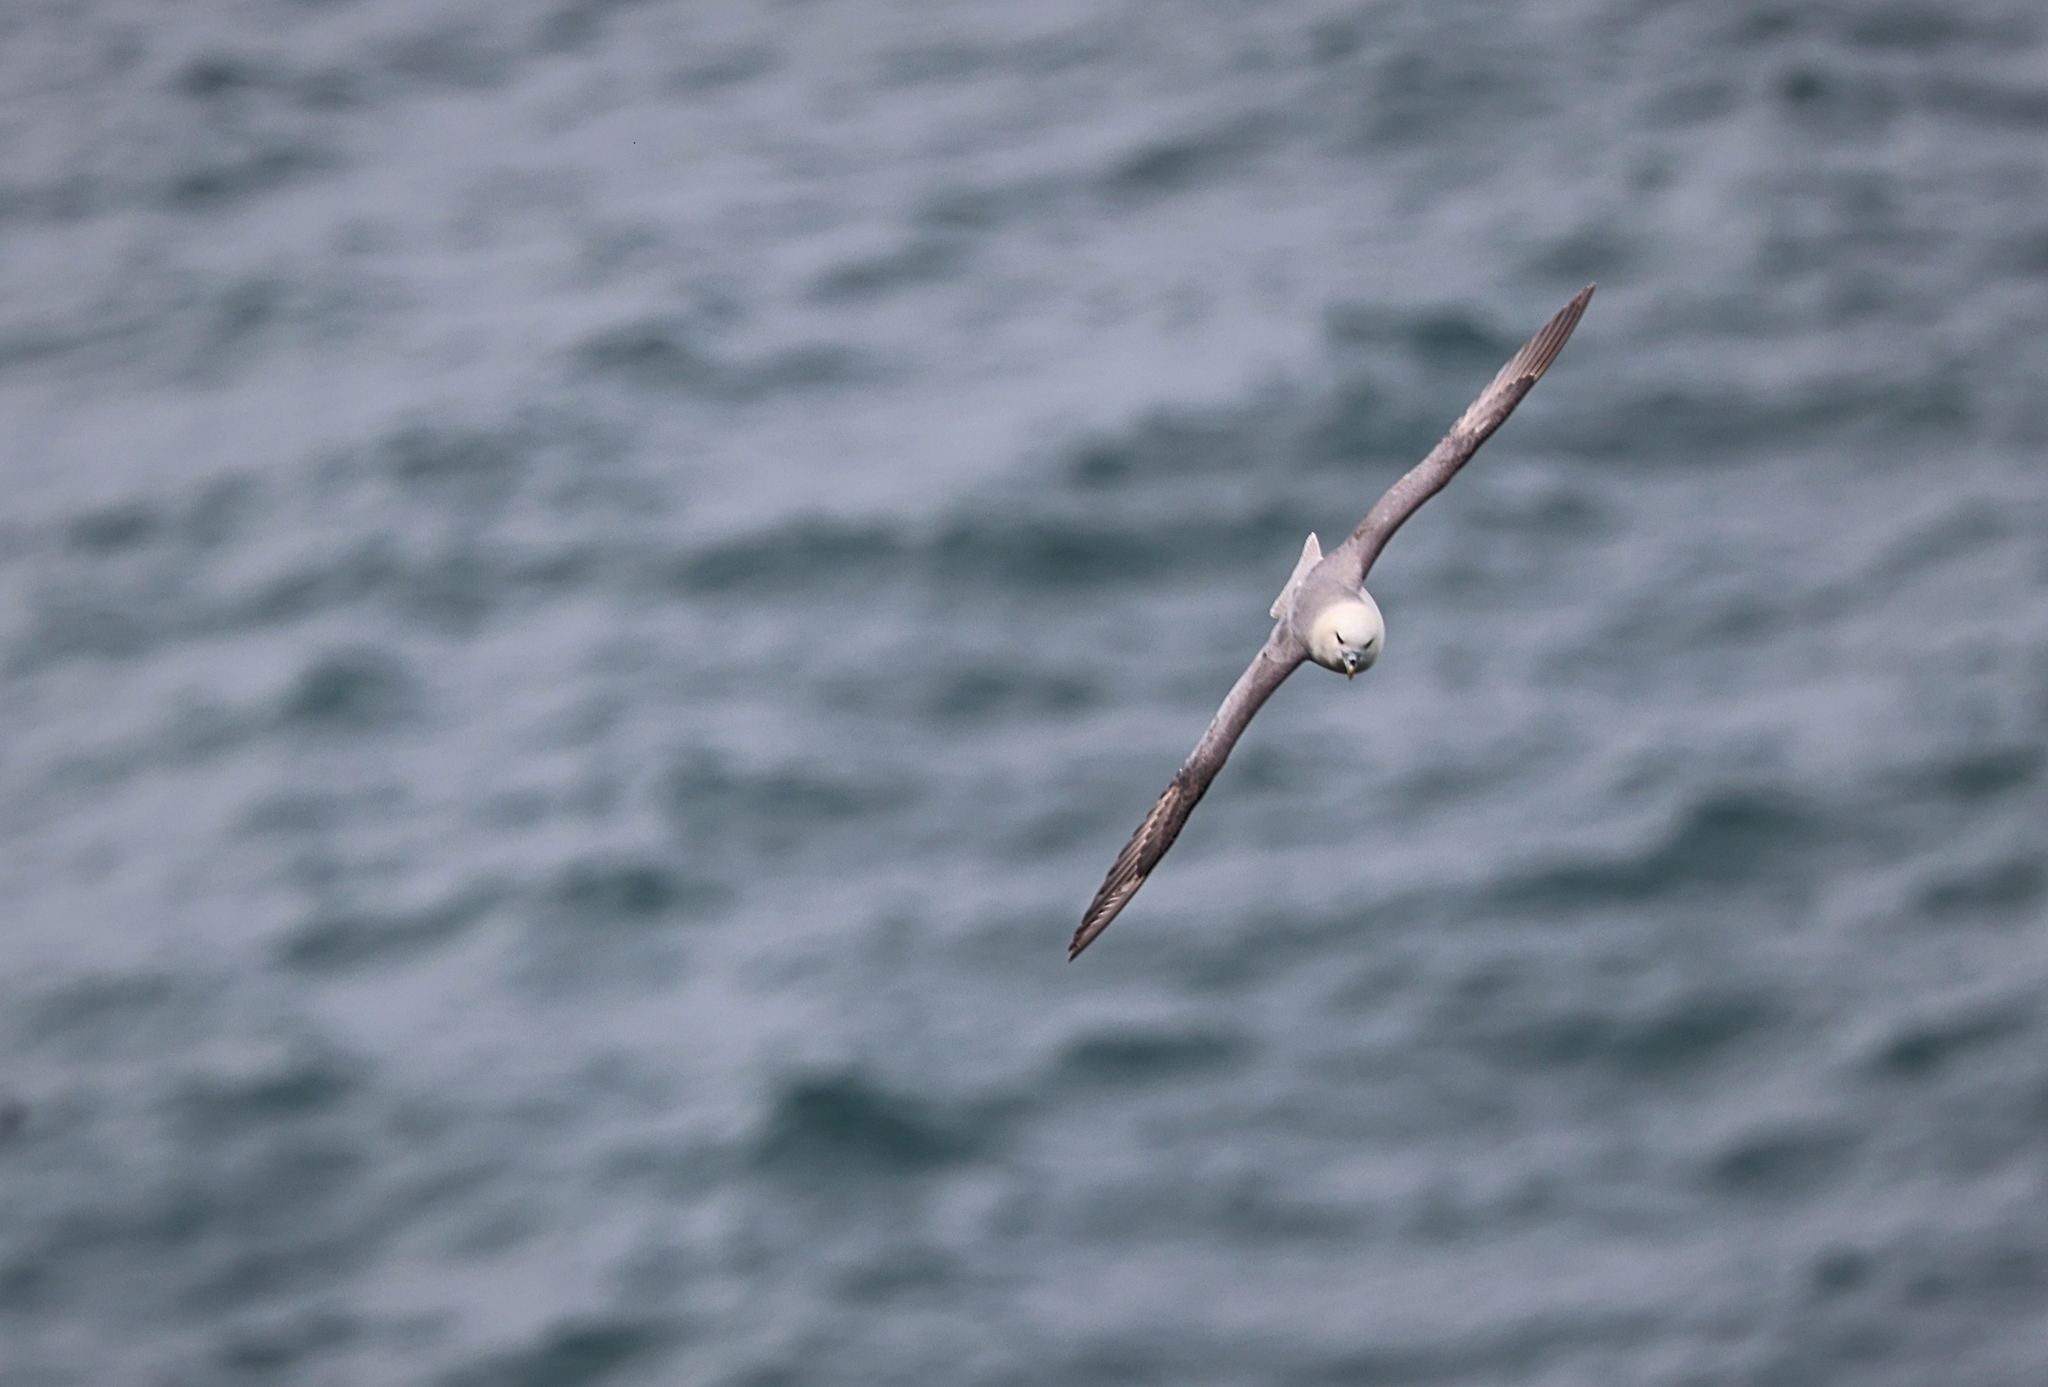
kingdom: Animalia
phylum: Chordata
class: Aves
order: Procellariiformes
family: Procellariidae
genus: Fulmarus
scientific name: Fulmarus glacialis
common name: Northern fulmar
